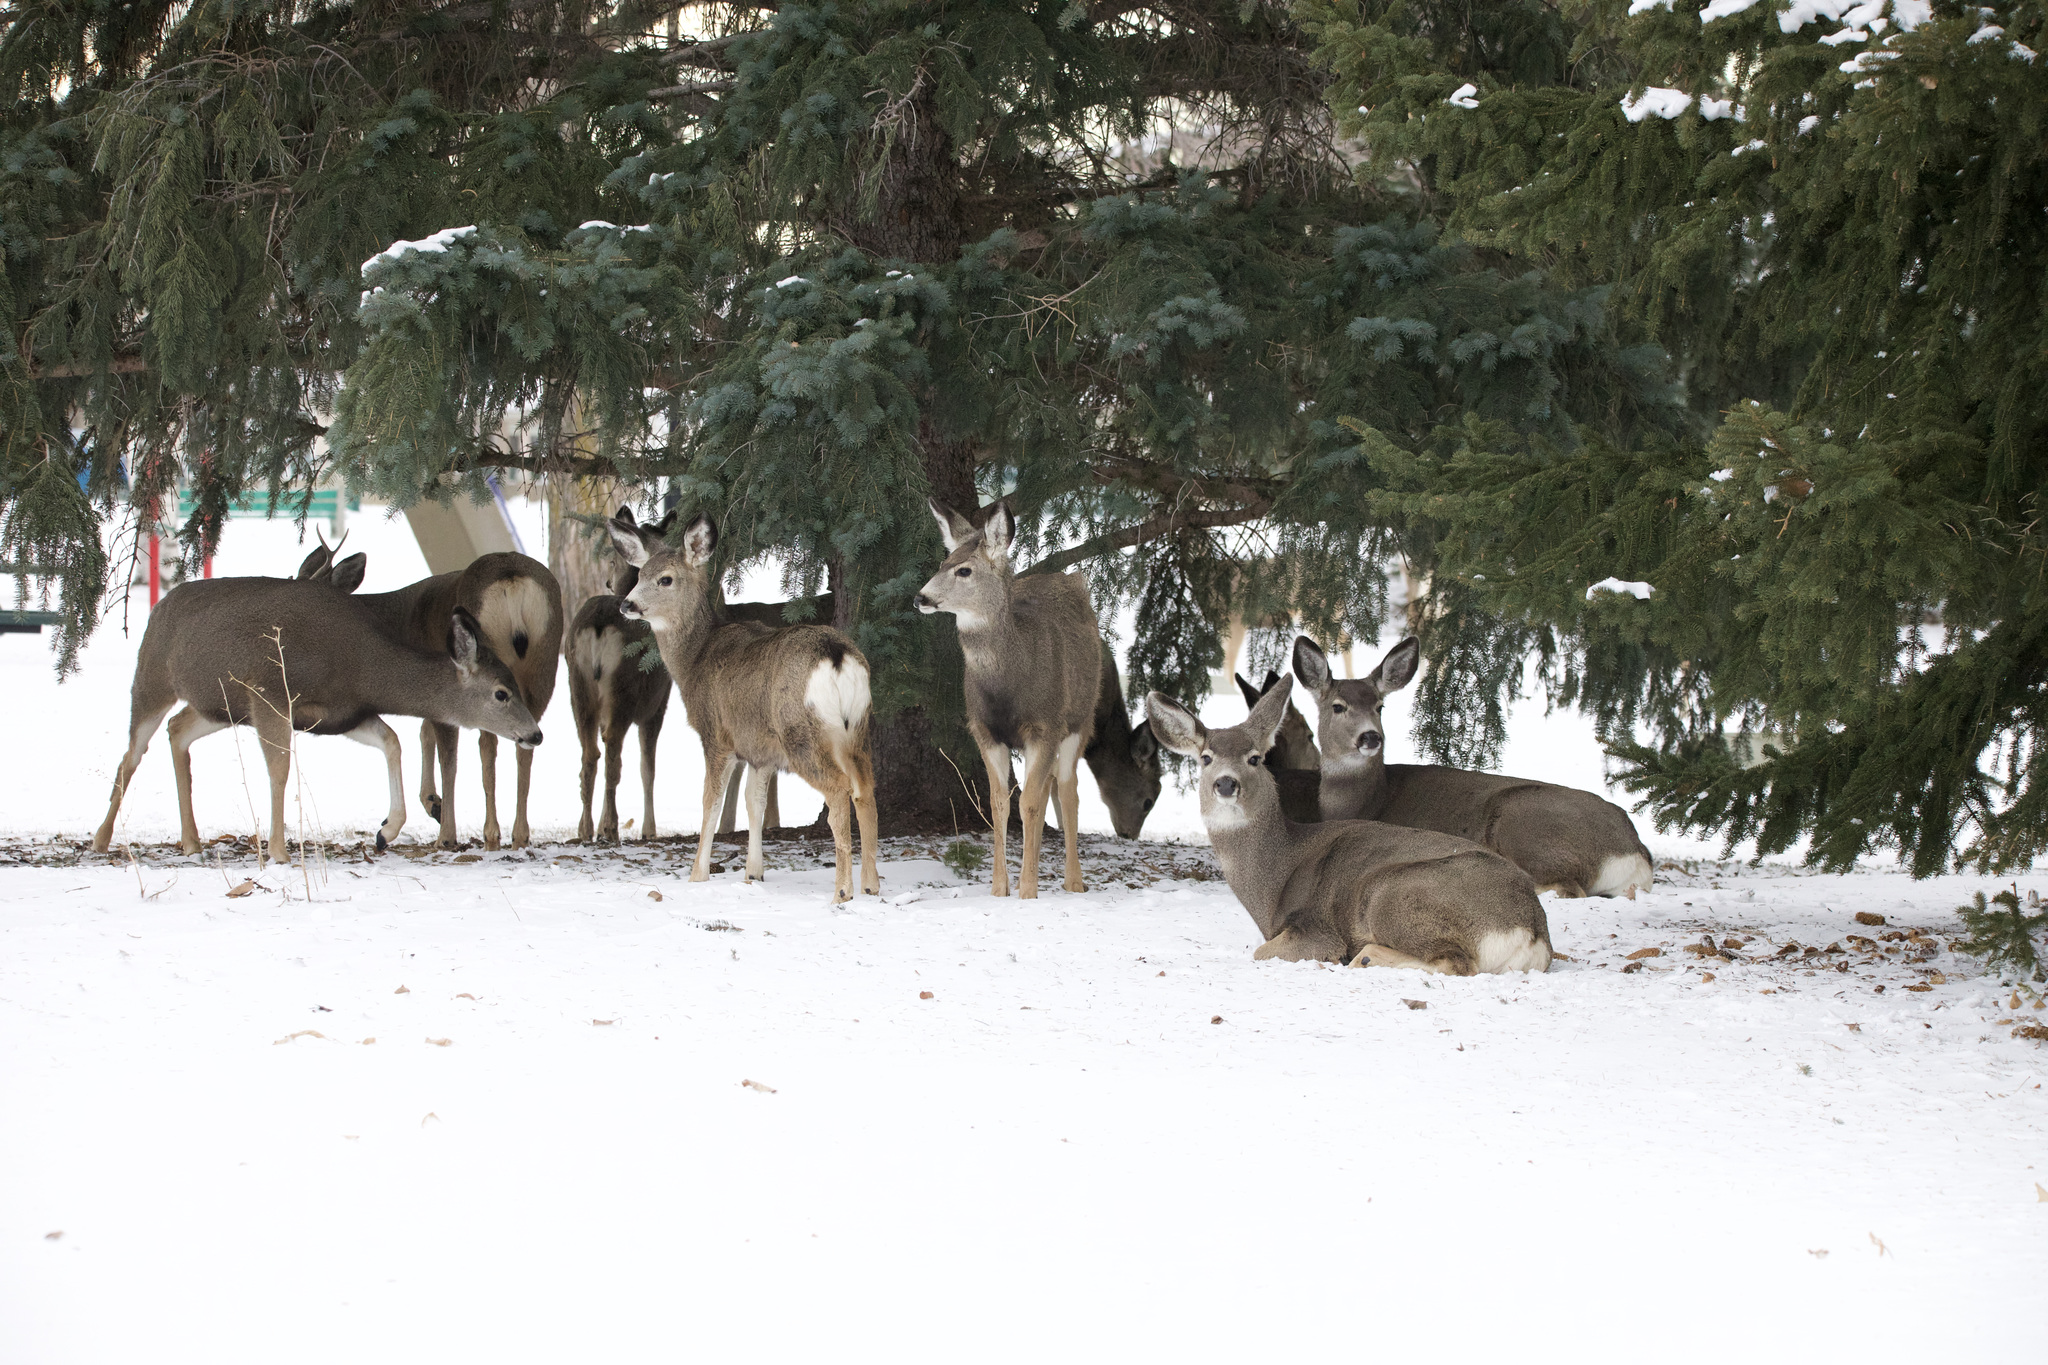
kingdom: Animalia
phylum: Chordata
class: Mammalia
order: Artiodactyla
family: Cervidae
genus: Odocoileus
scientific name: Odocoileus hemionus
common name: Mule deer
